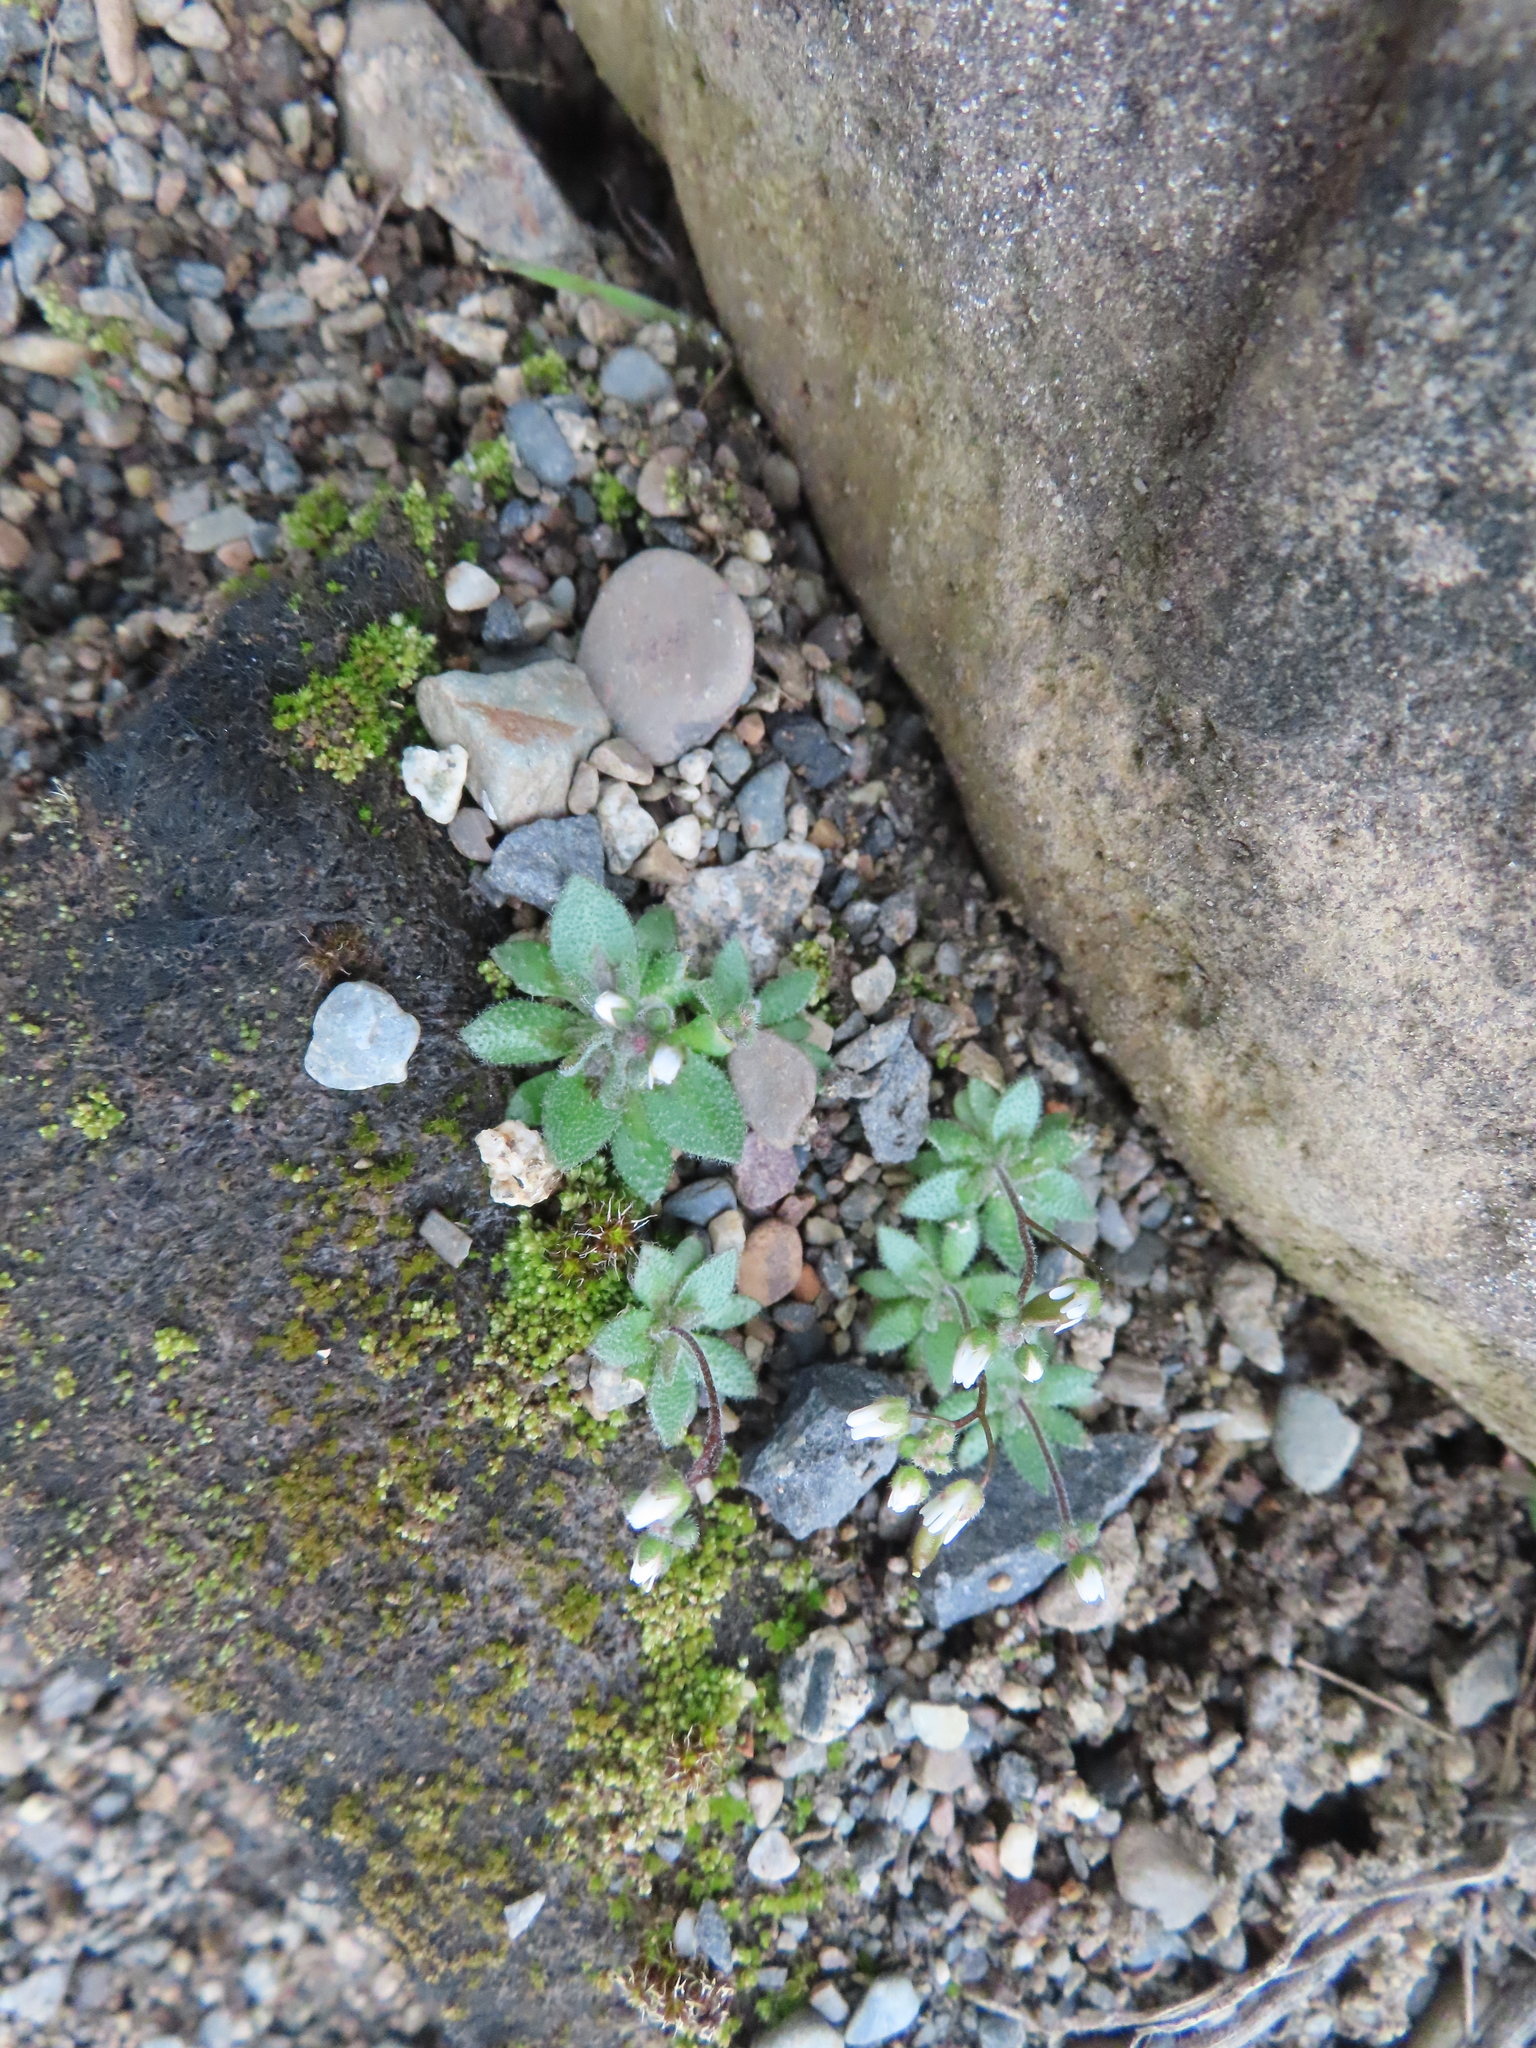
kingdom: Plantae
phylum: Tracheophyta
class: Magnoliopsida
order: Brassicales
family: Brassicaceae
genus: Draba
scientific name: Draba verna
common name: Spring draba
